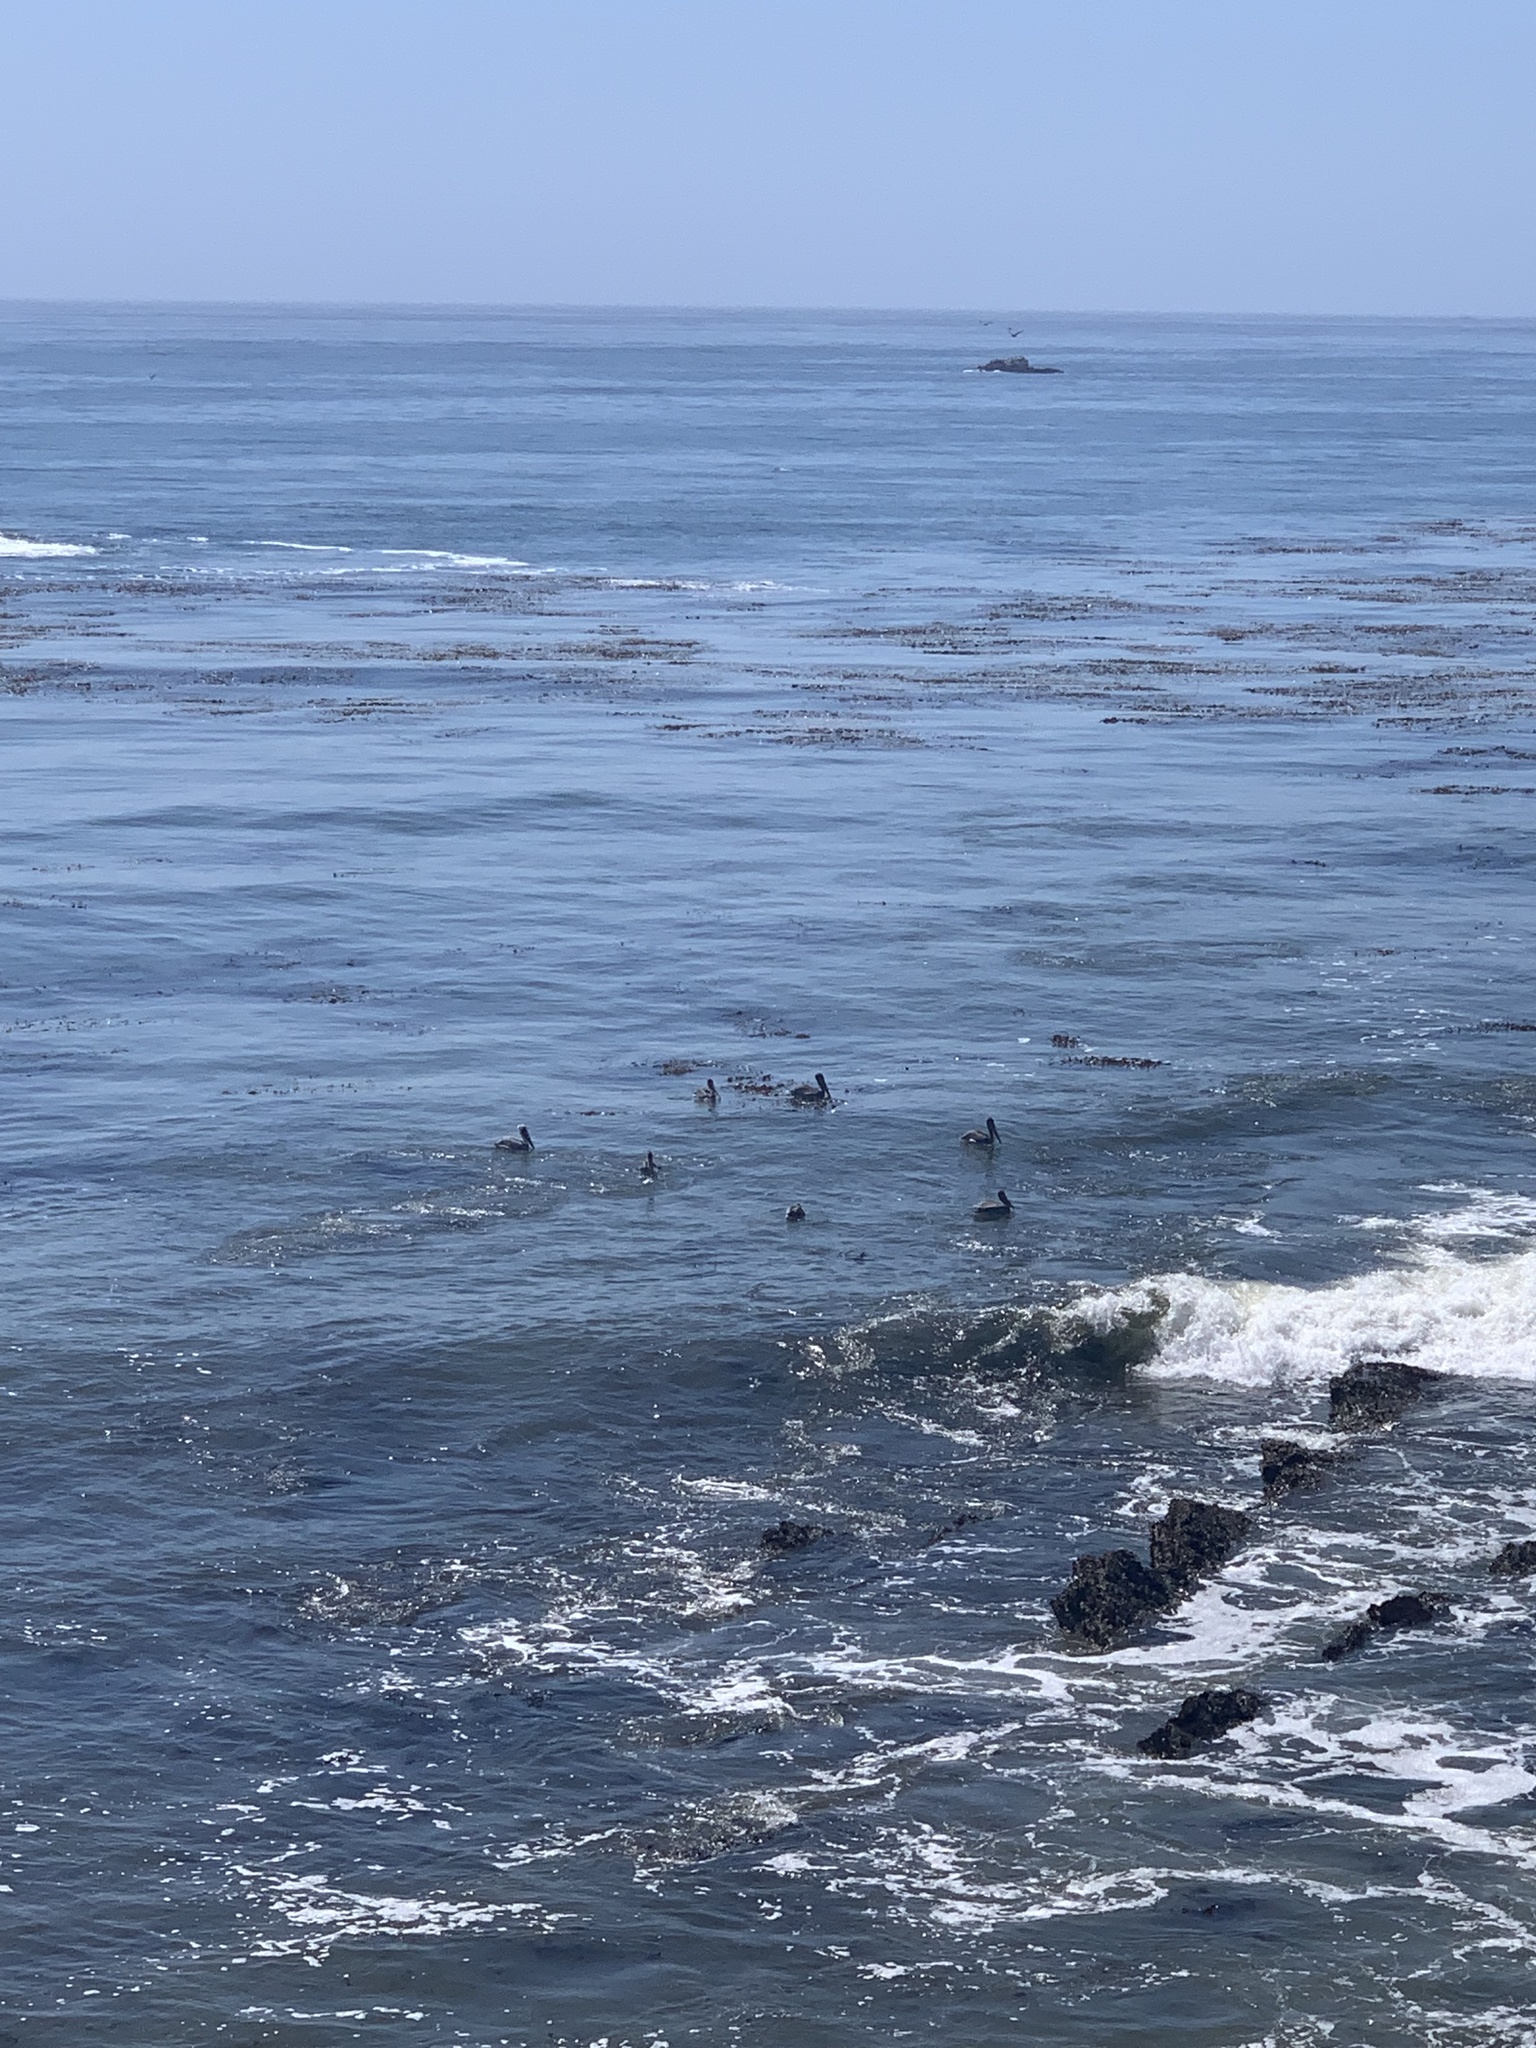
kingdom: Animalia
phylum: Chordata
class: Aves
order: Pelecaniformes
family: Pelecanidae
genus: Pelecanus
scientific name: Pelecanus occidentalis
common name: Brown pelican
